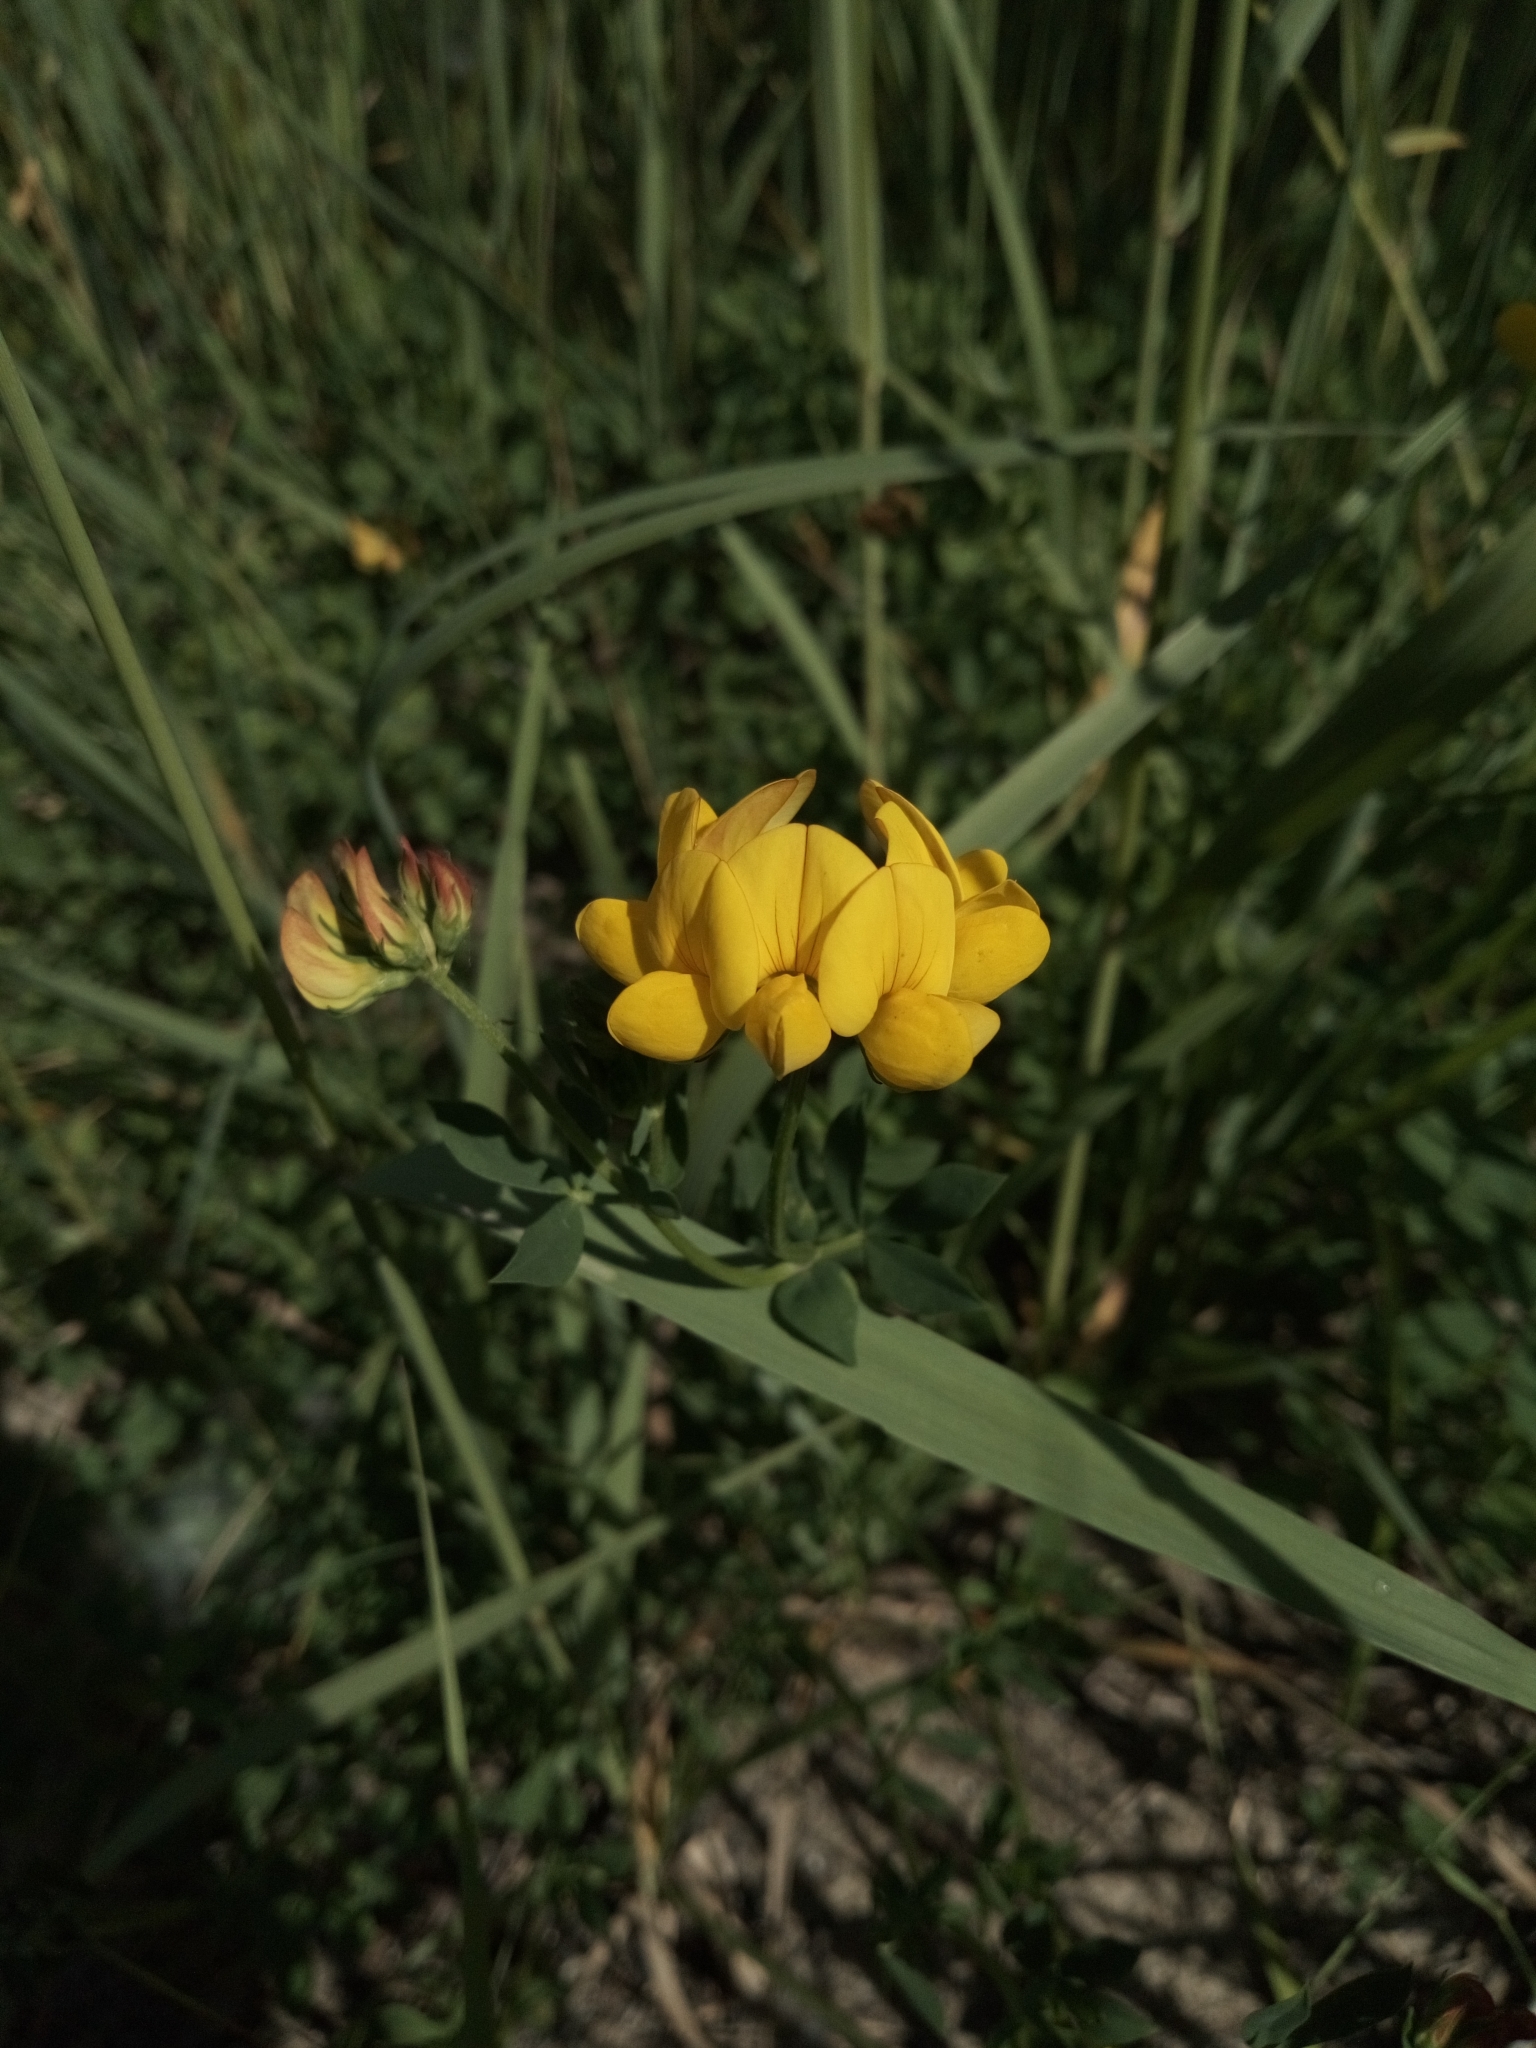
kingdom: Plantae
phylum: Tracheophyta
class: Magnoliopsida
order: Fabales
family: Fabaceae
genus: Lotus
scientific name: Lotus corniculatus
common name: Common bird's-foot-trefoil
